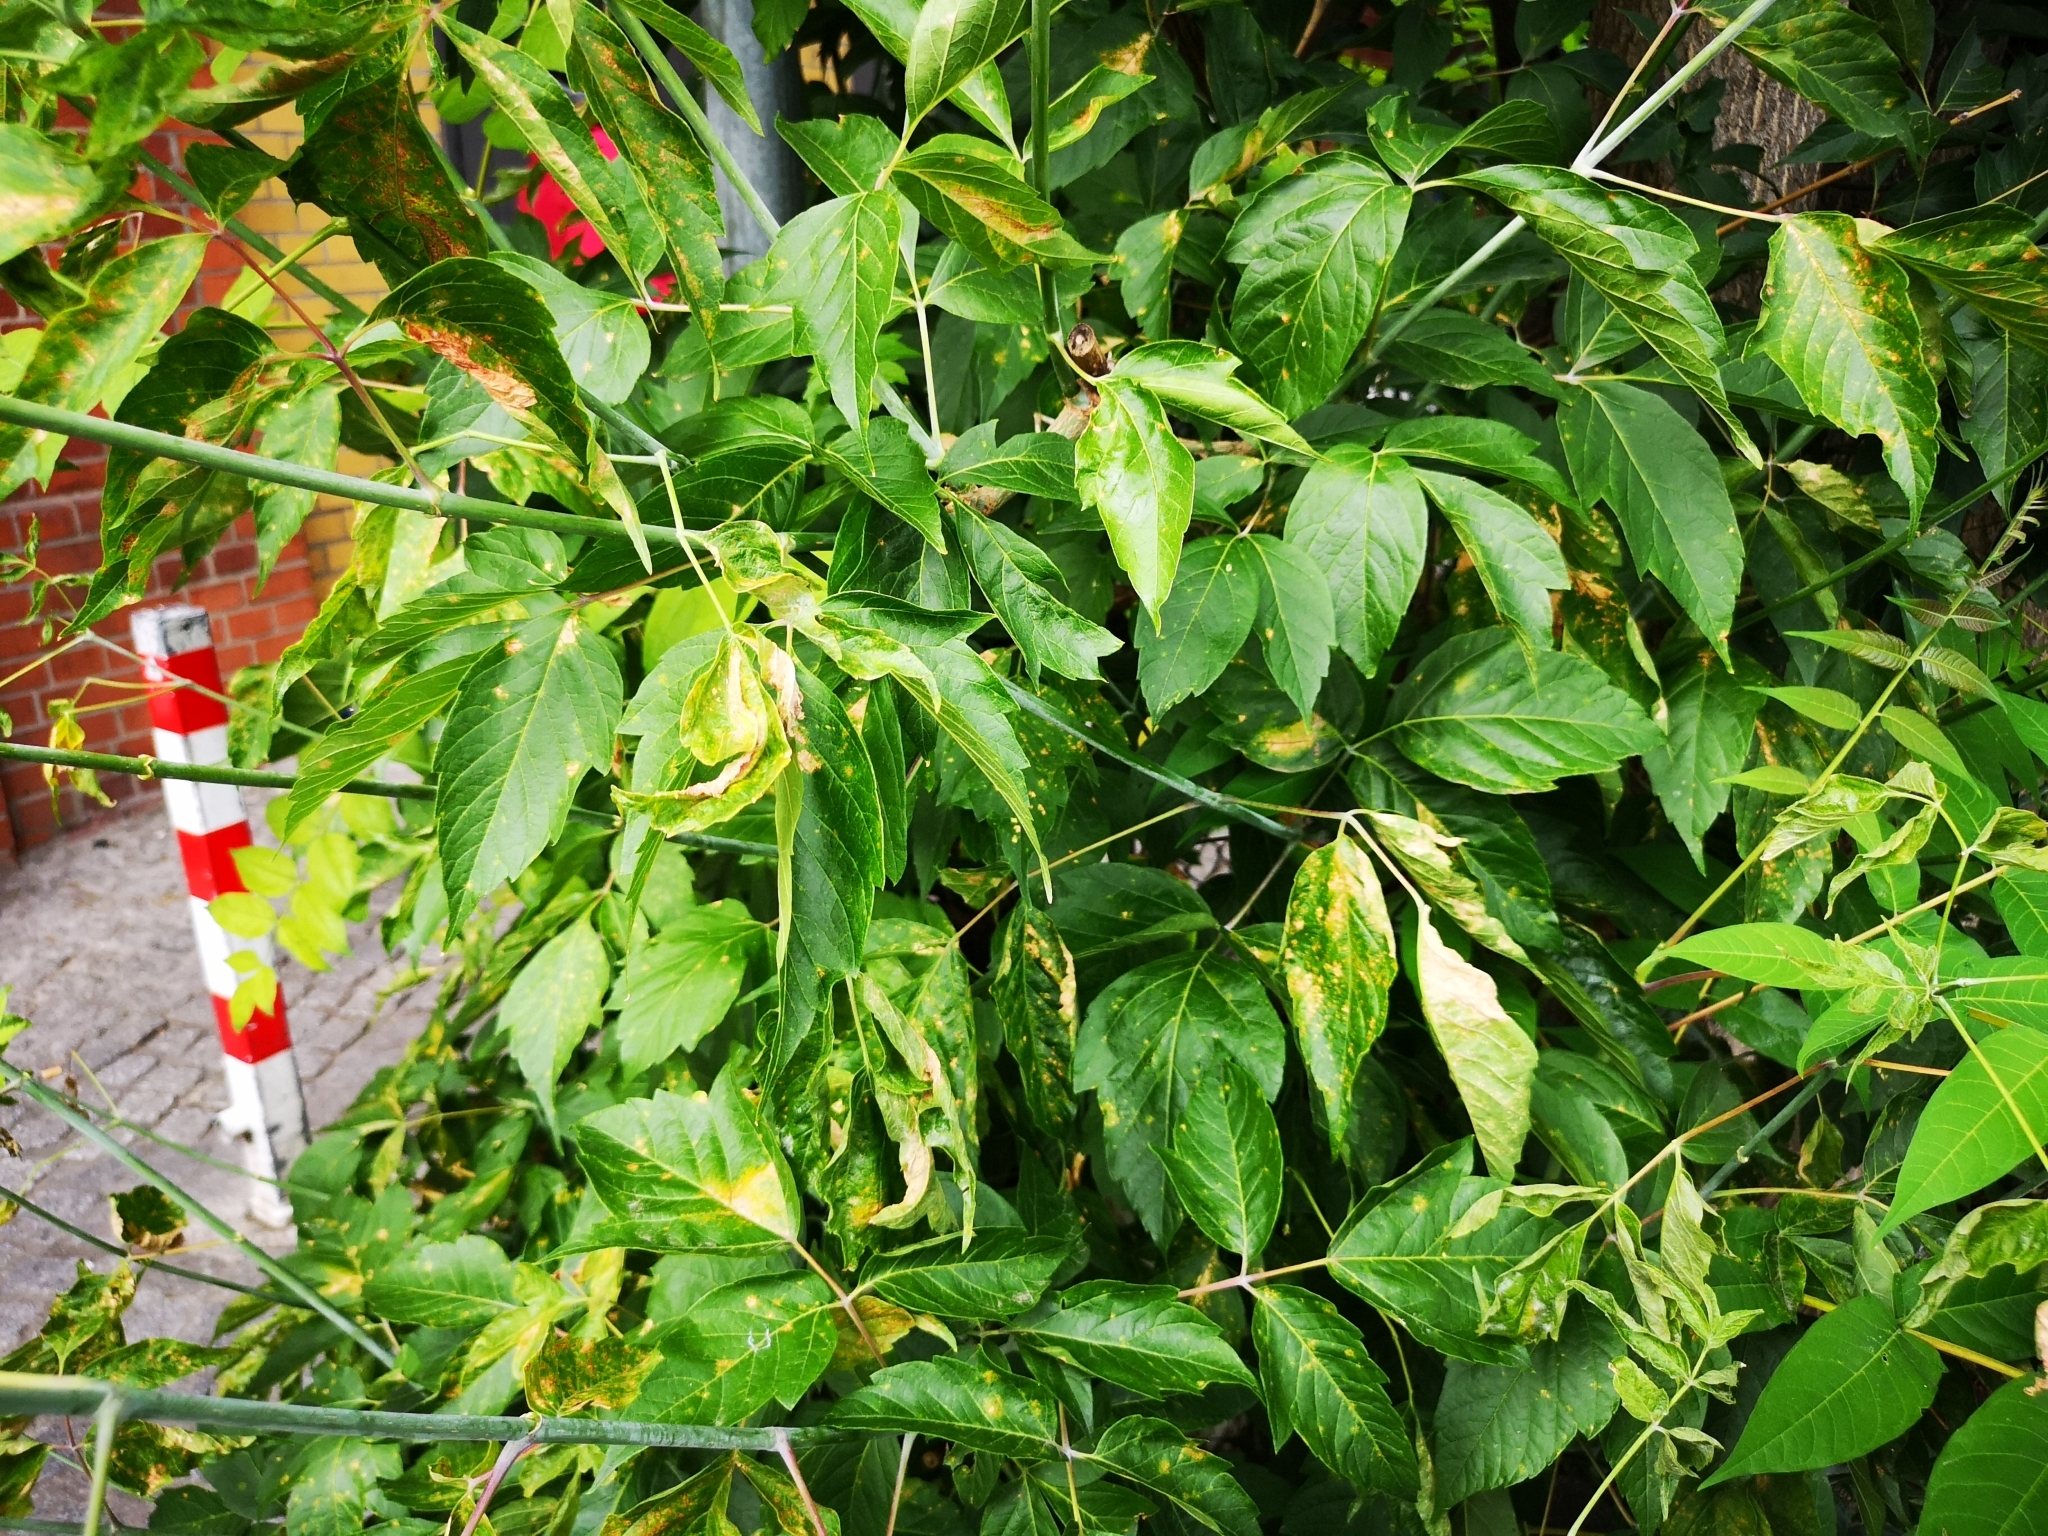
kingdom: Plantae
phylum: Tracheophyta
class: Magnoliopsida
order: Sapindales
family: Sapindaceae
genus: Acer
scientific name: Acer negundo
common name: Ashleaf maple
